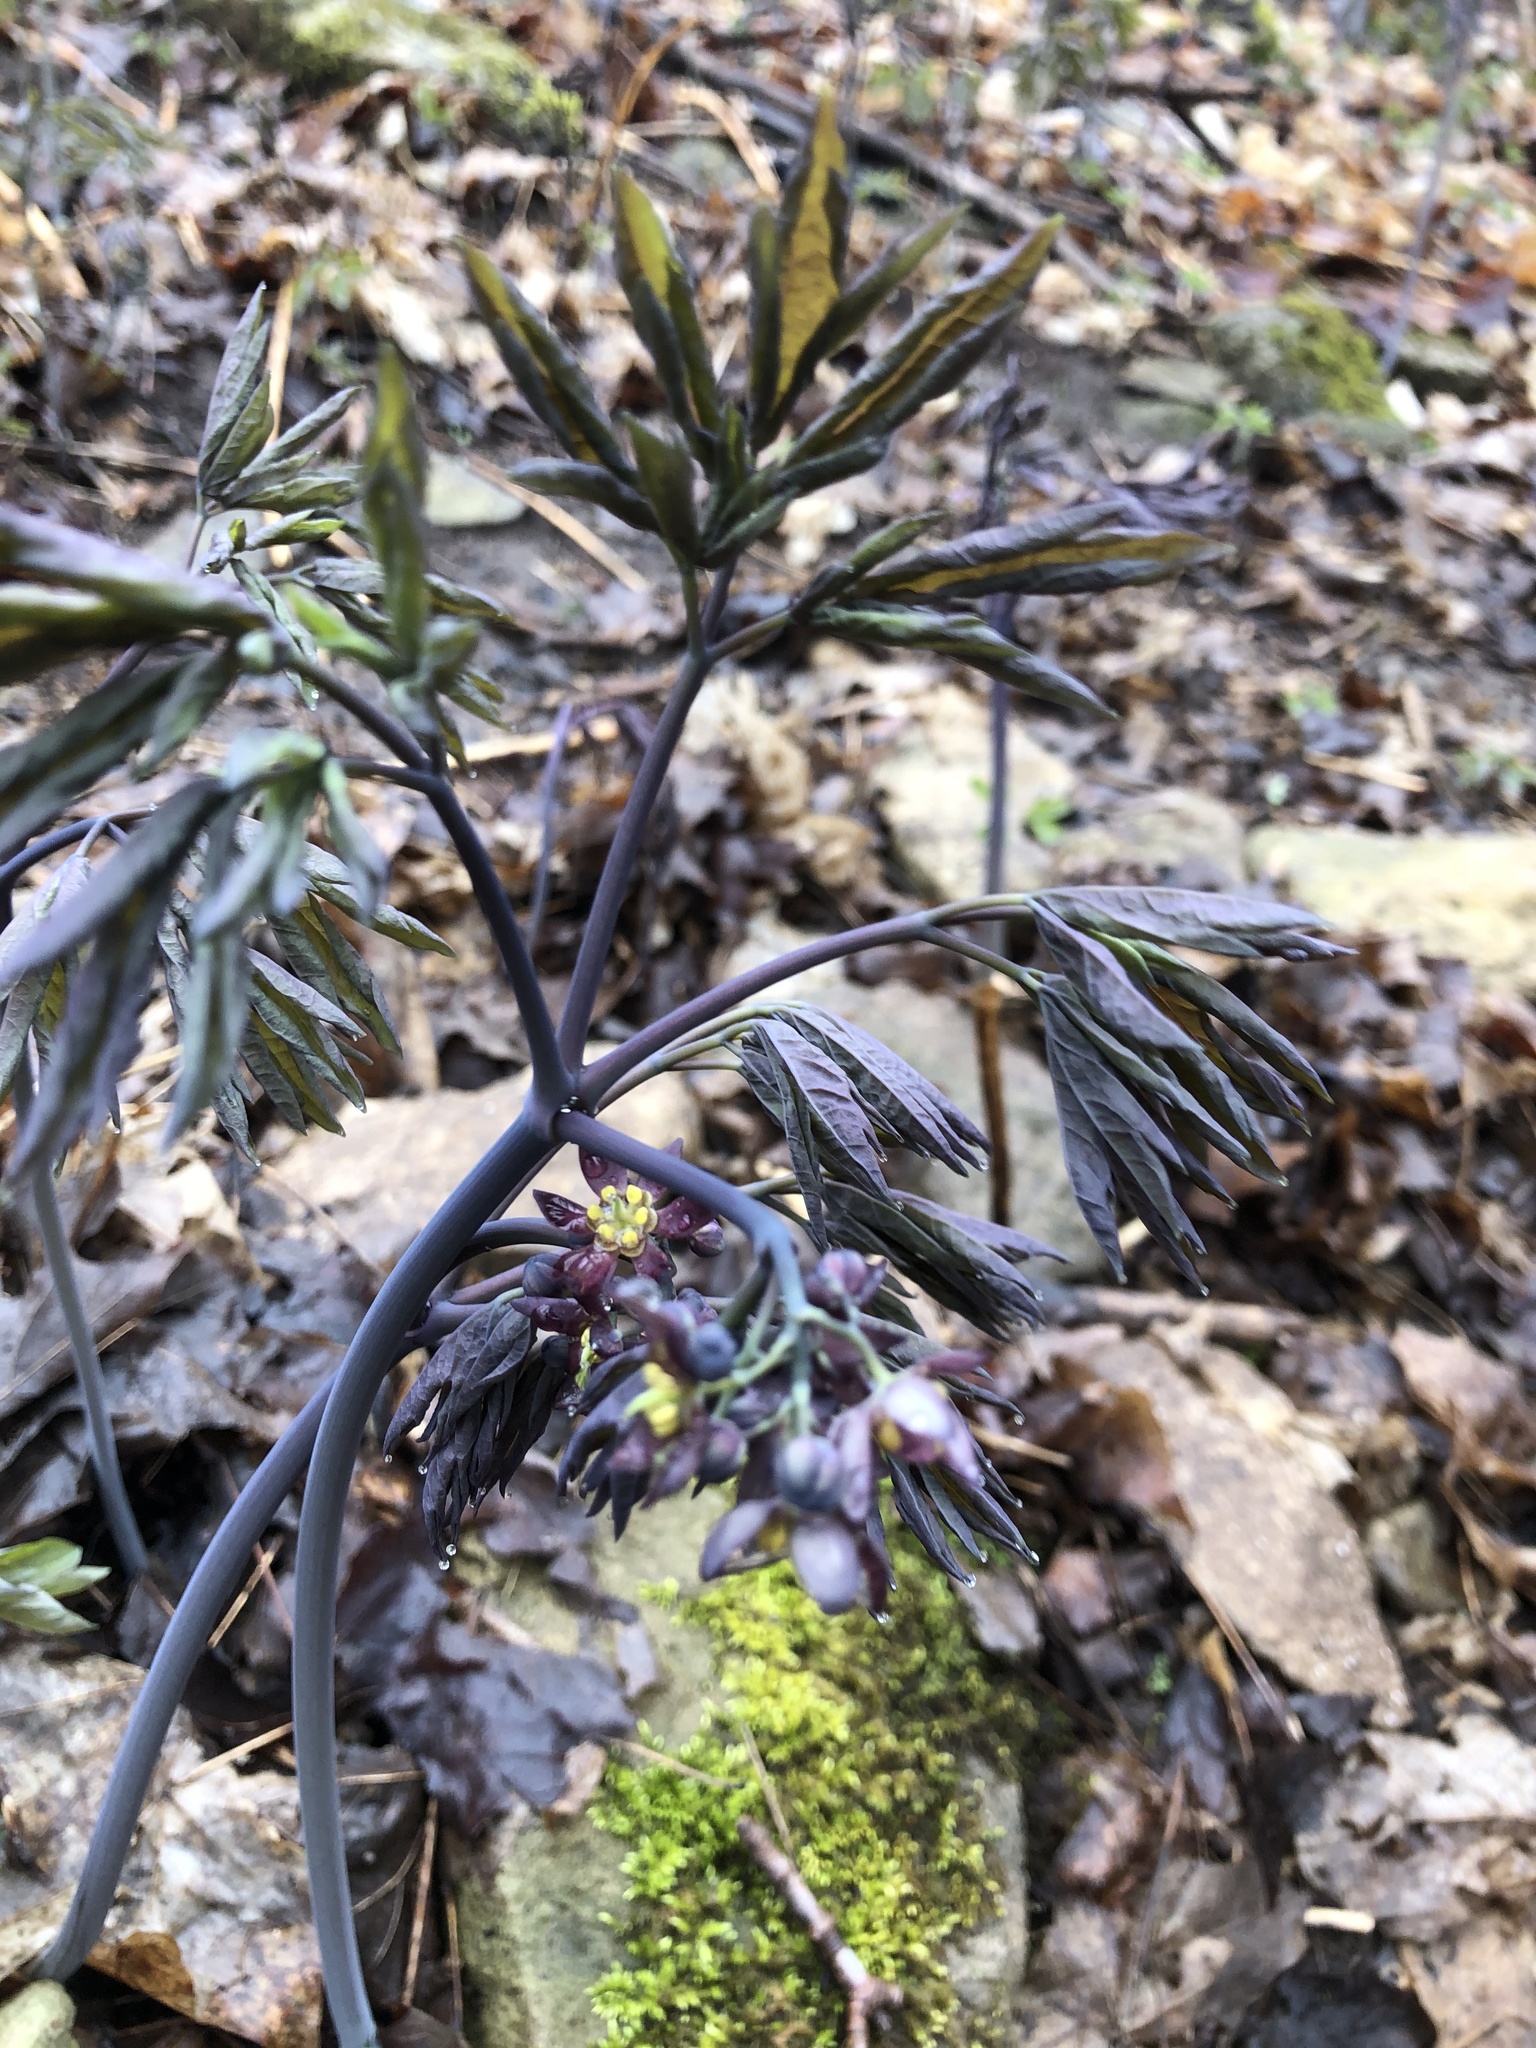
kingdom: Plantae
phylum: Tracheophyta
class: Magnoliopsida
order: Ranunculales
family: Berberidaceae
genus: Caulophyllum
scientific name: Caulophyllum giganteum
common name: Blue cohosh
